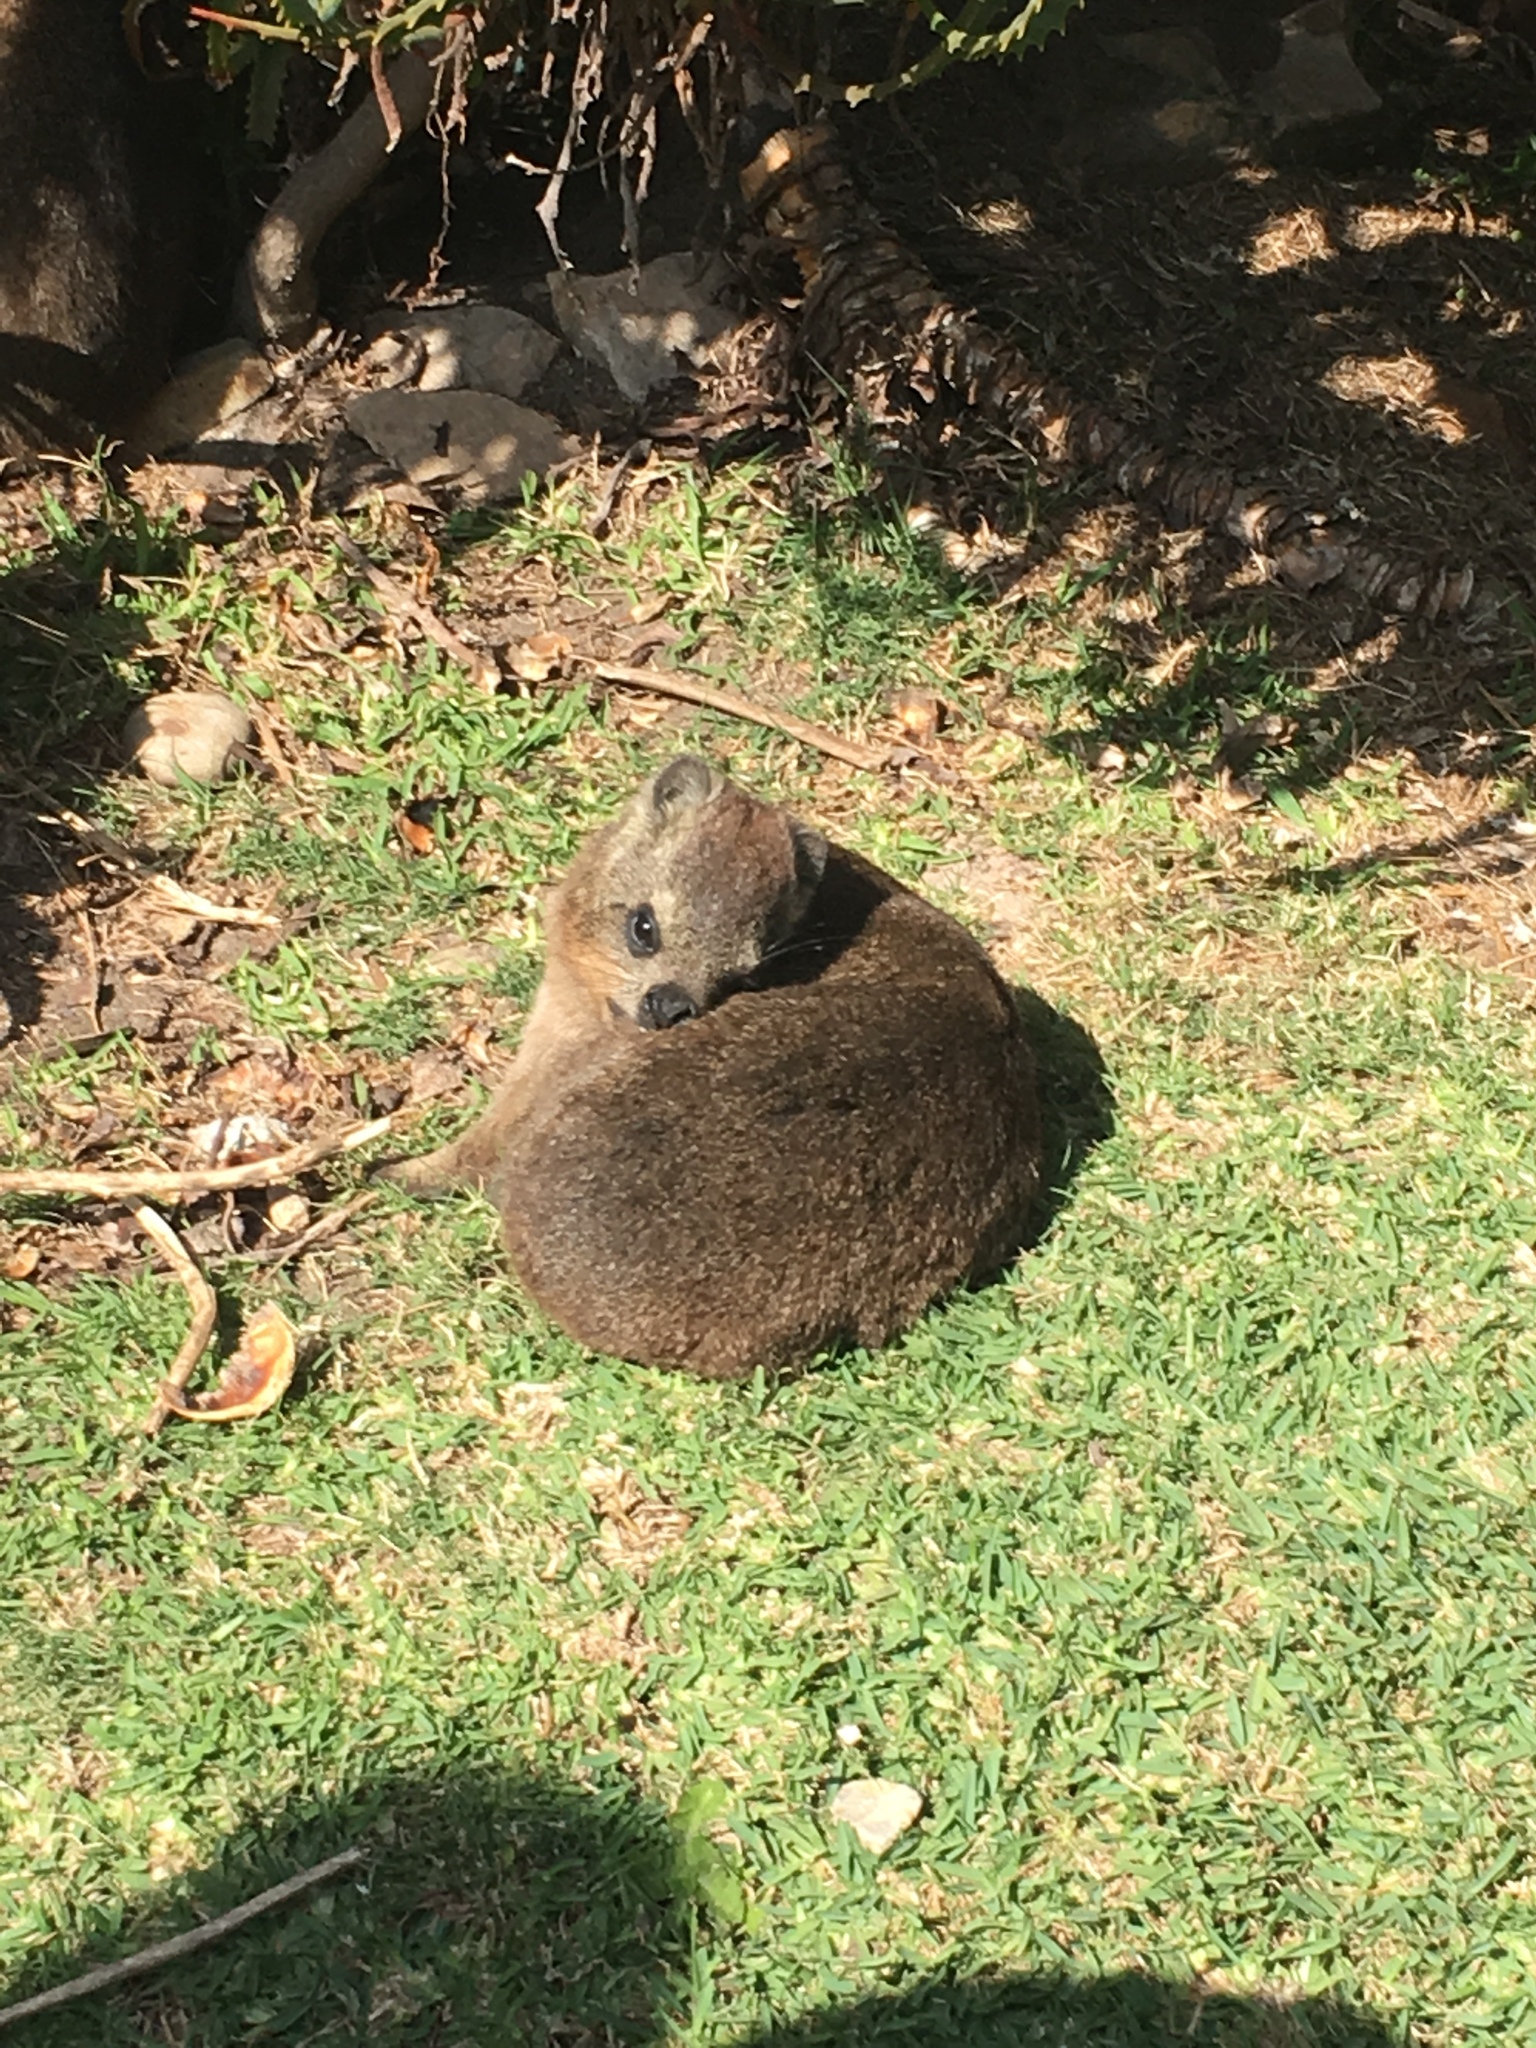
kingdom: Animalia
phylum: Chordata
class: Mammalia
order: Hyracoidea
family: Procaviidae
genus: Procavia
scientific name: Procavia capensis
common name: Rock hyrax
